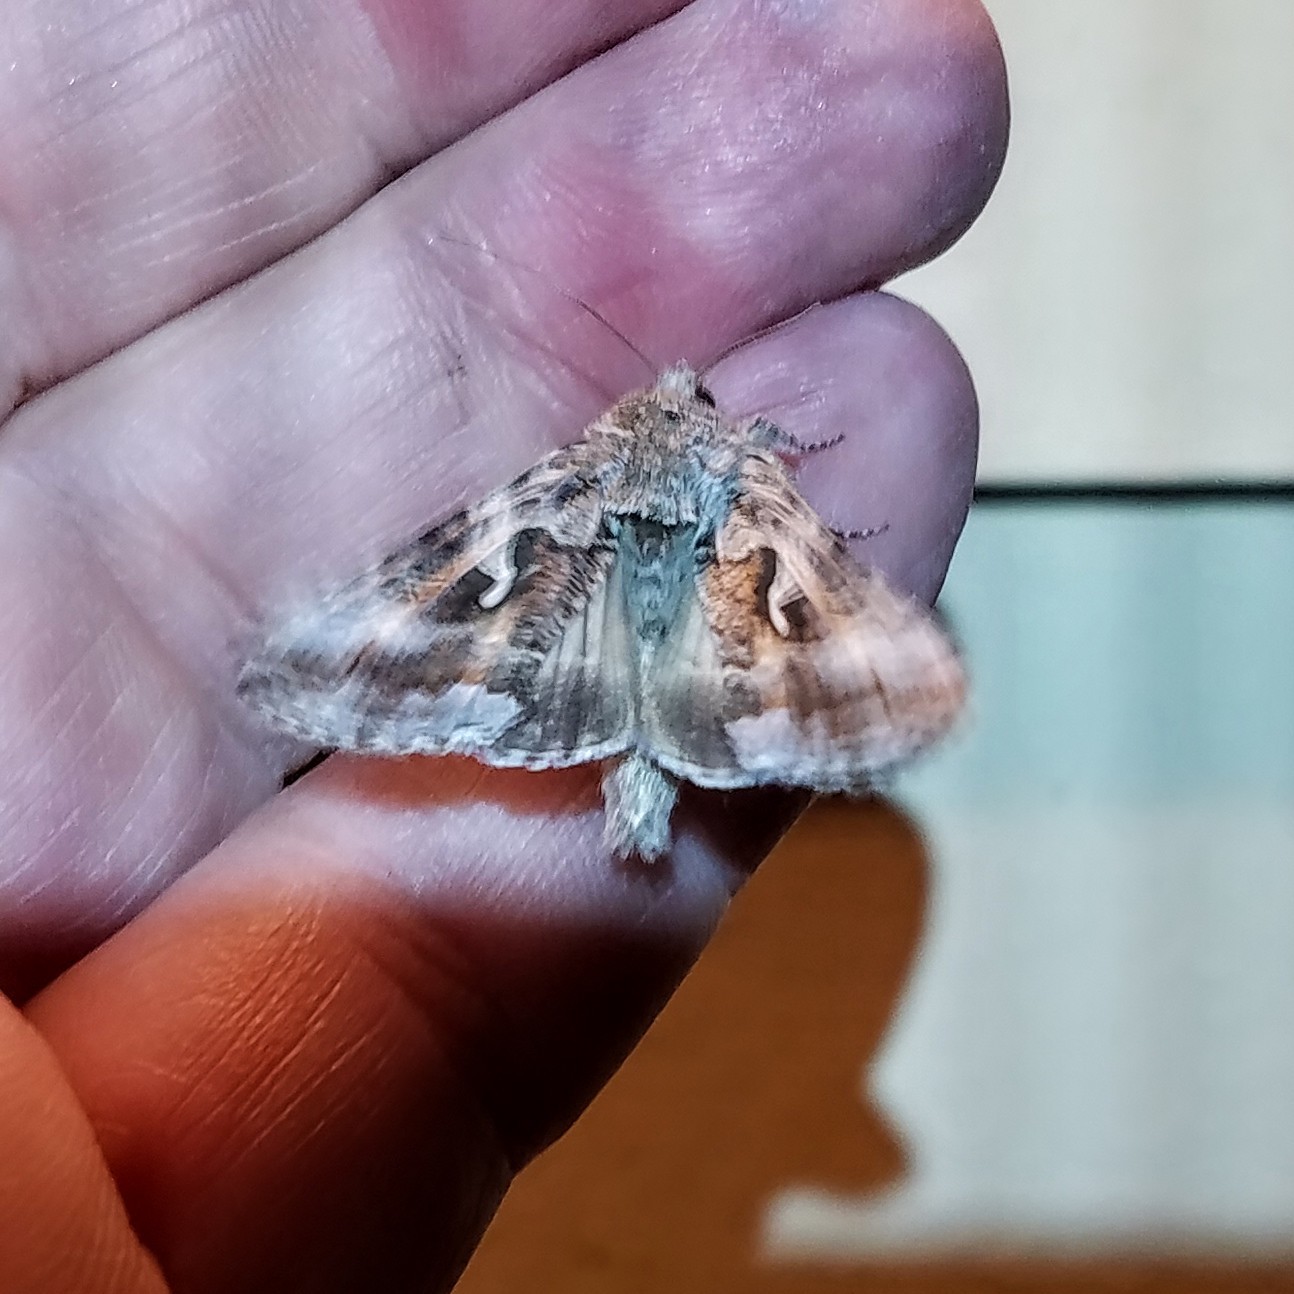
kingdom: Animalia
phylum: Arthropoda
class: Insecta
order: Lepidoptera
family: Noctuidae
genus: Autographa
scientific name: Autographa californica
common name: Alfalfa looper
